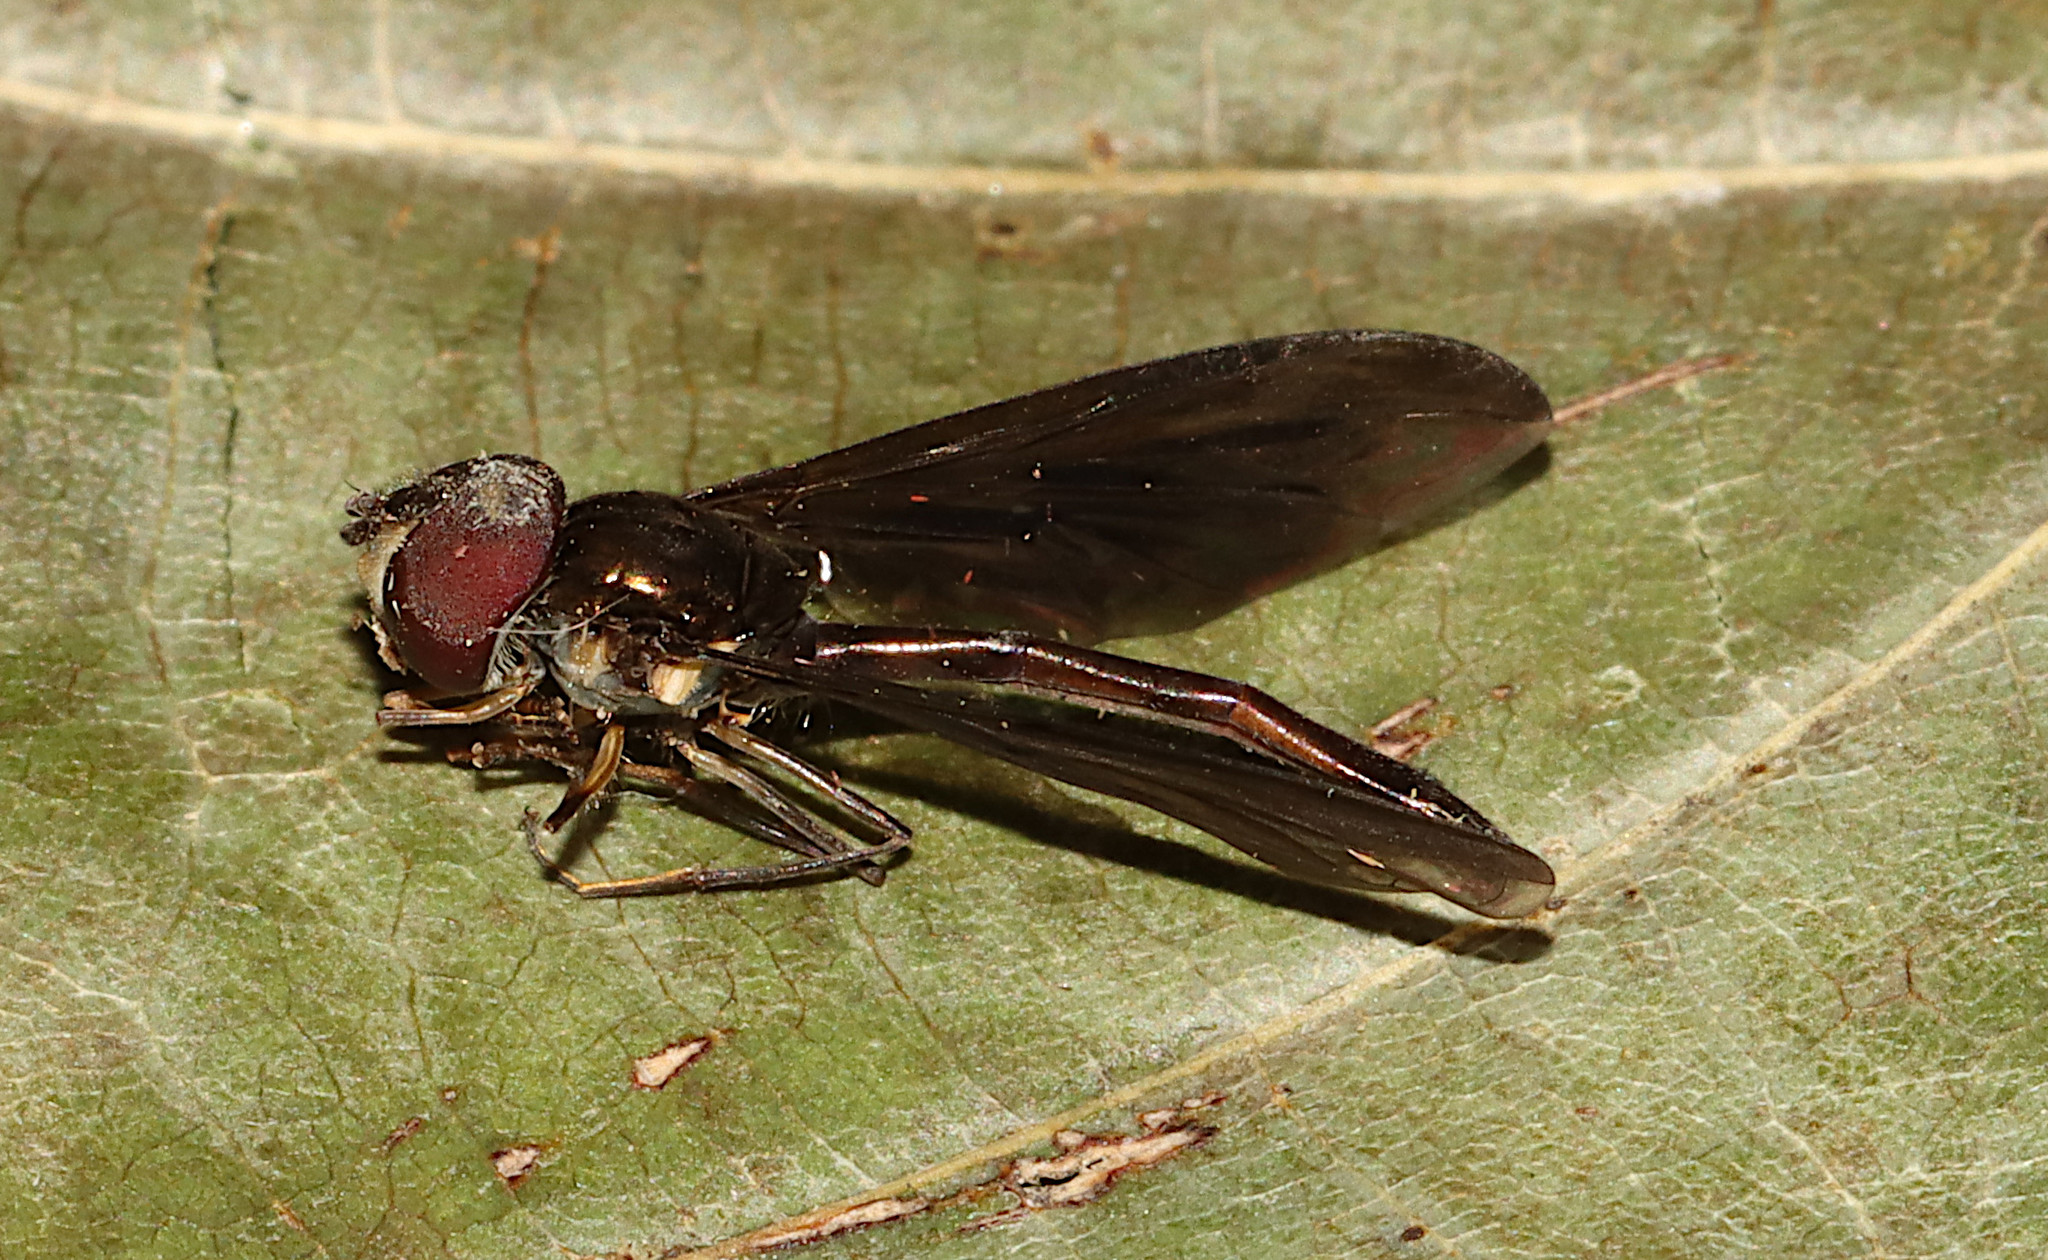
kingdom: Animalia
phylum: Arthropoda
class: Insecta
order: Diptera
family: Syrphidae
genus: Ocyptamus
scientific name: Ocyptamus fuscipennis
